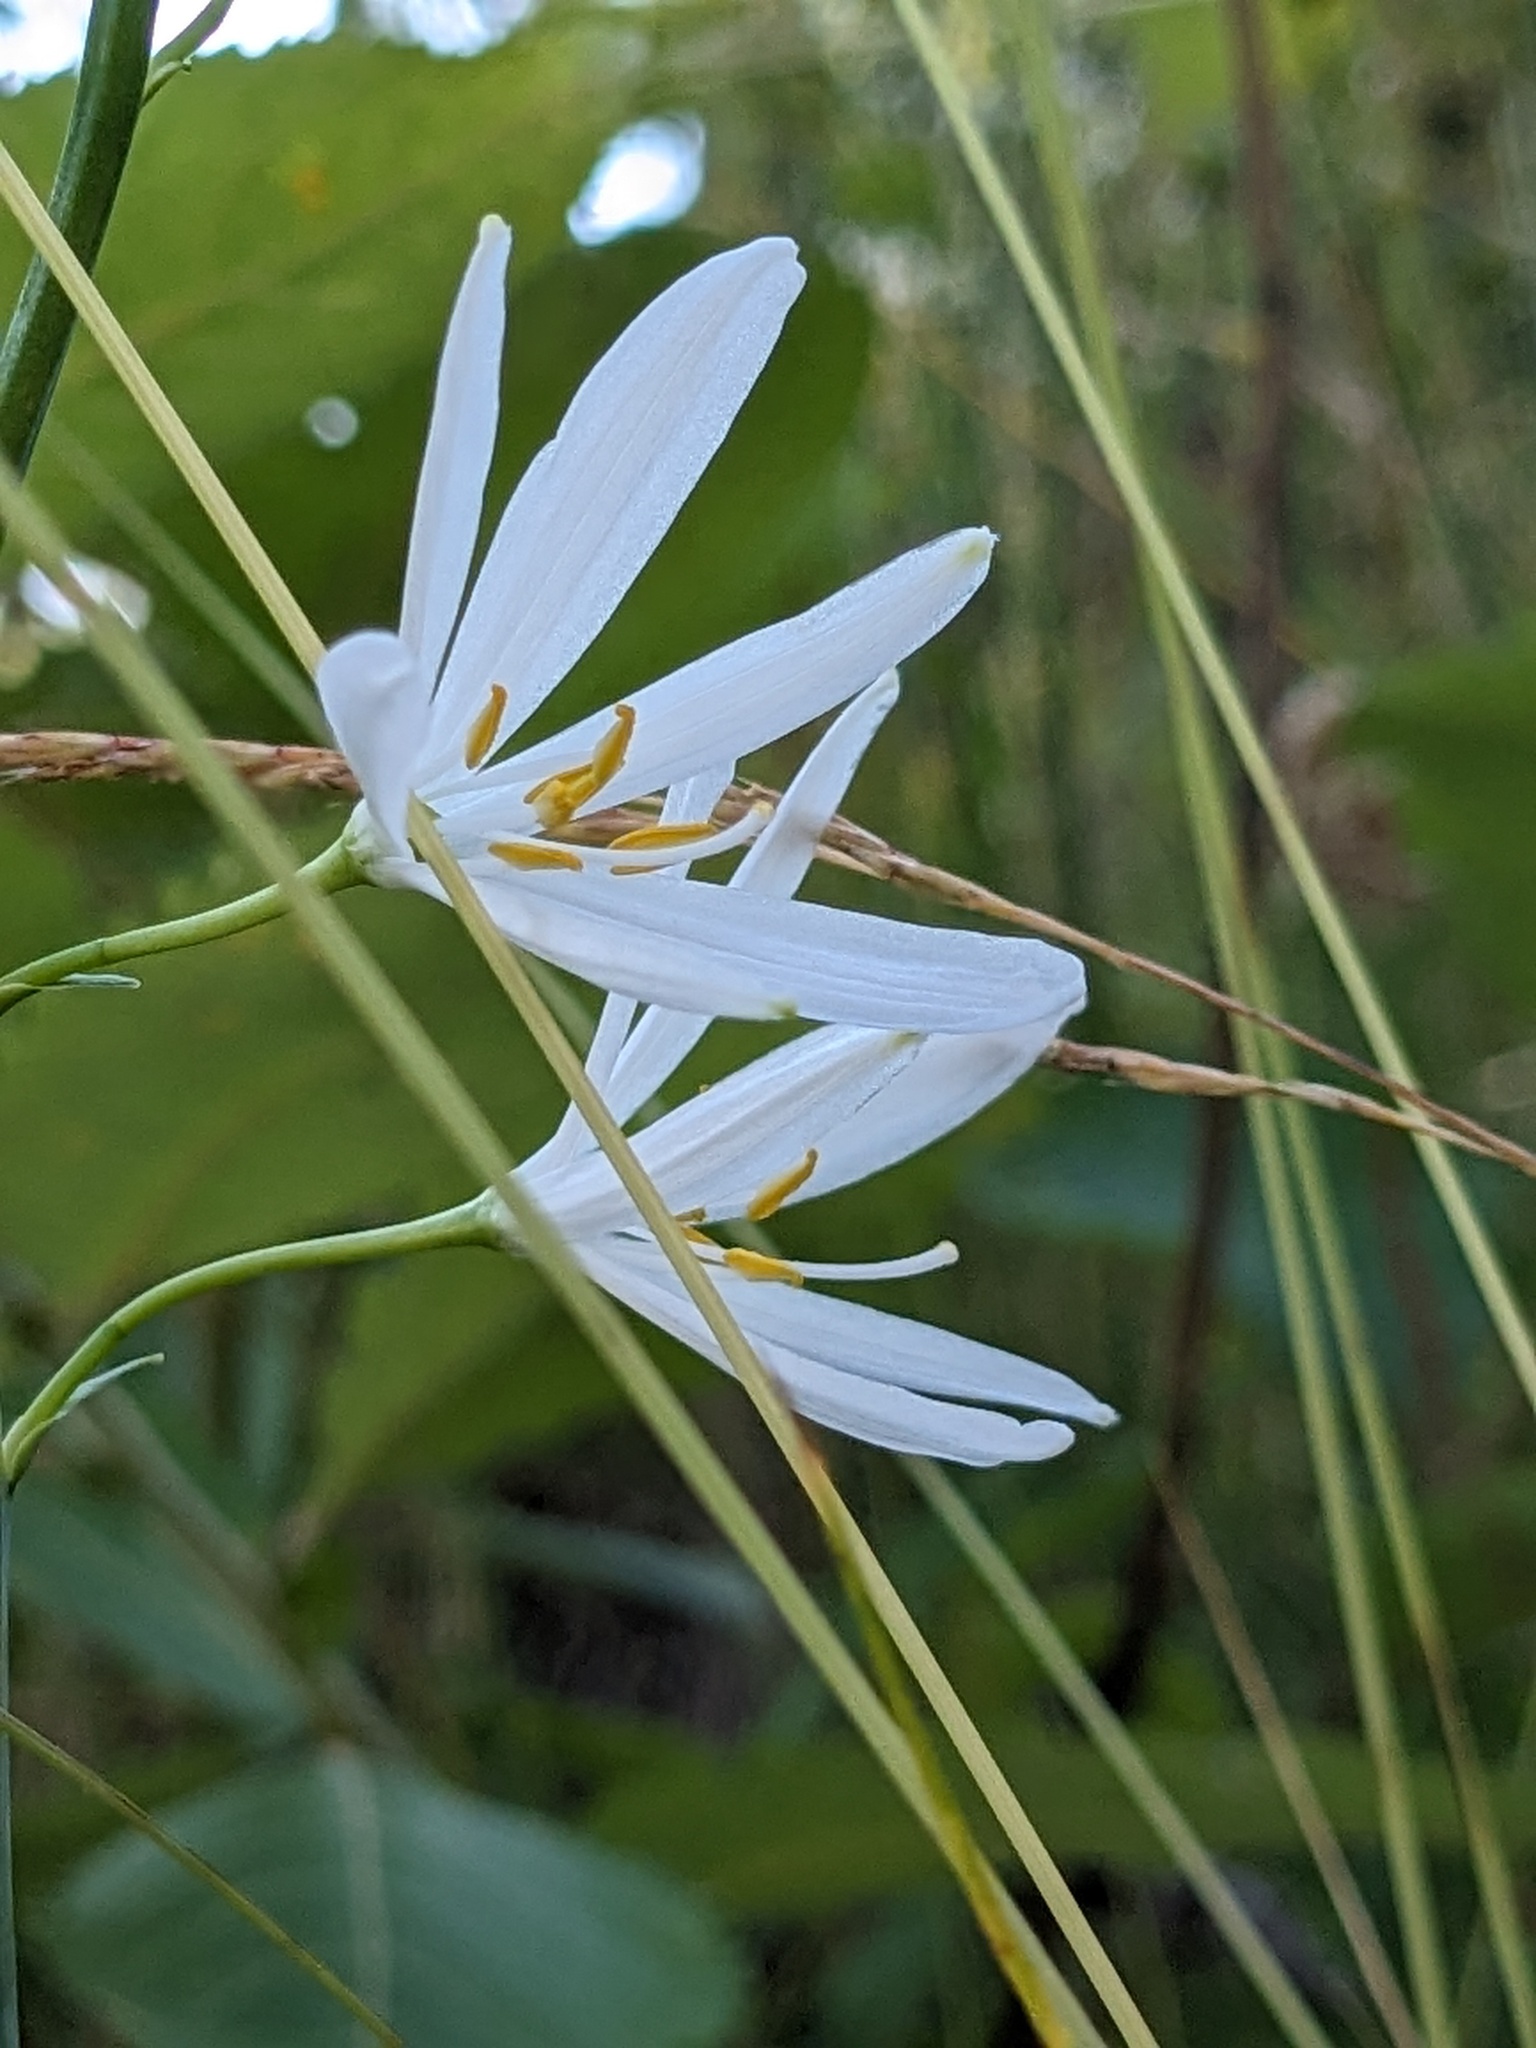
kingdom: Plantae
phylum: Tracheophyta
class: Liliopsida
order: Asparagales
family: Asparagaceae
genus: Anthericum
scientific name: Anthericum liliago
